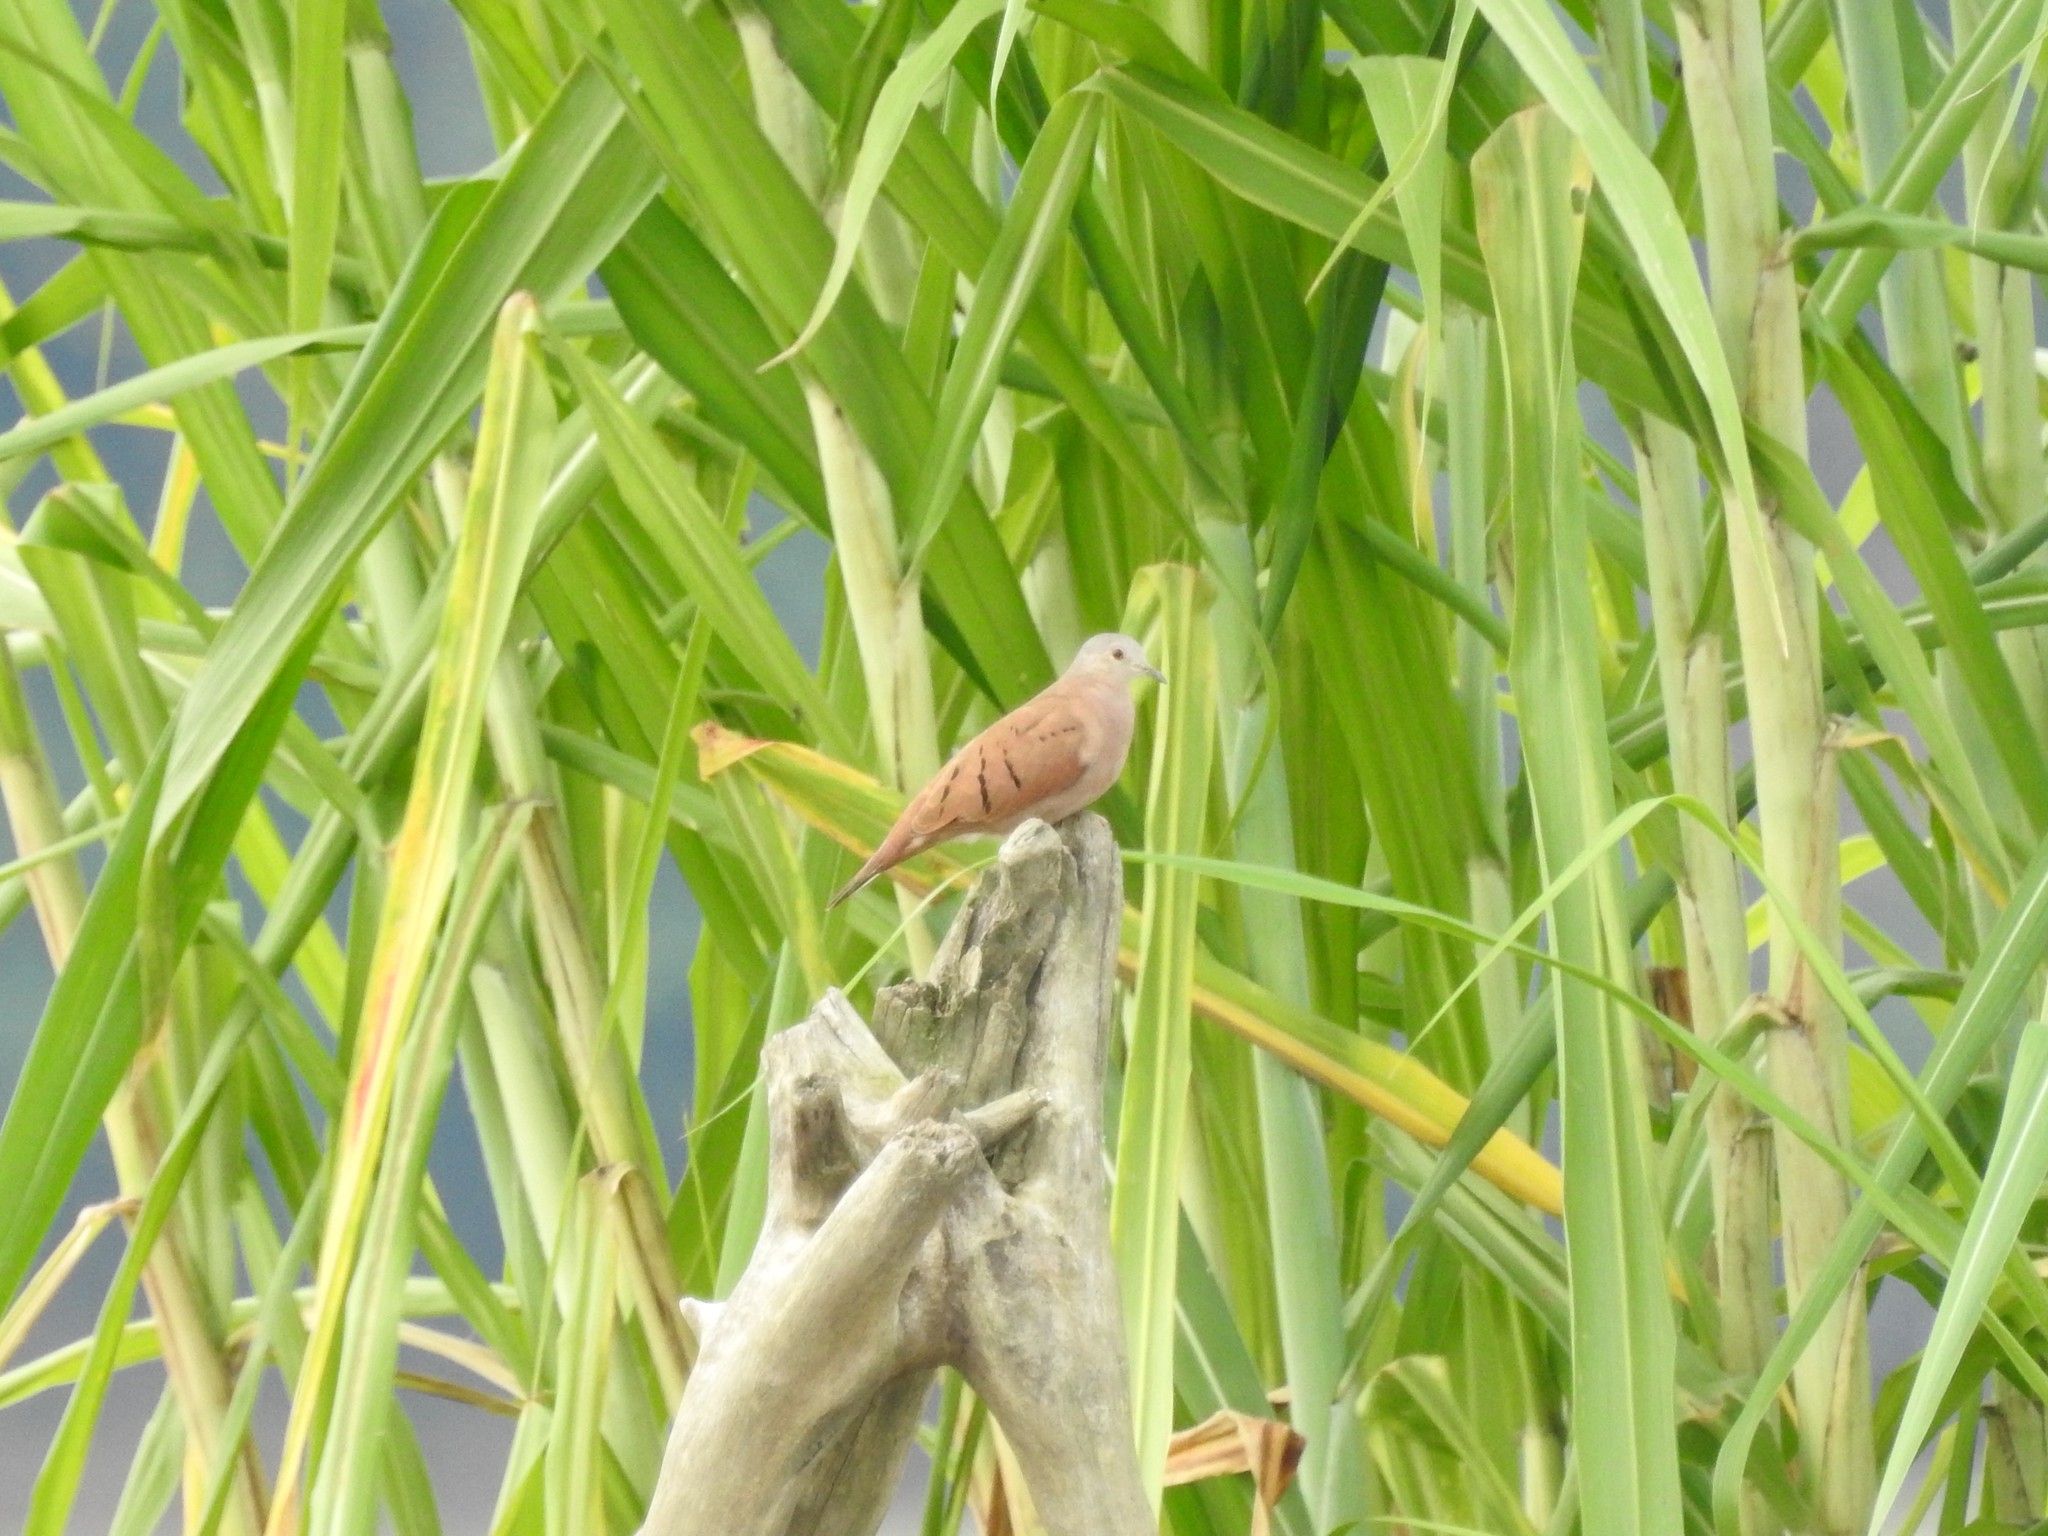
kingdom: Animalia
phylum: Chordata
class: Aves
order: Columbiformes
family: Columbidae
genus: Columbina
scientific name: Columbina talpacoti
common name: Ruddy ground dove
